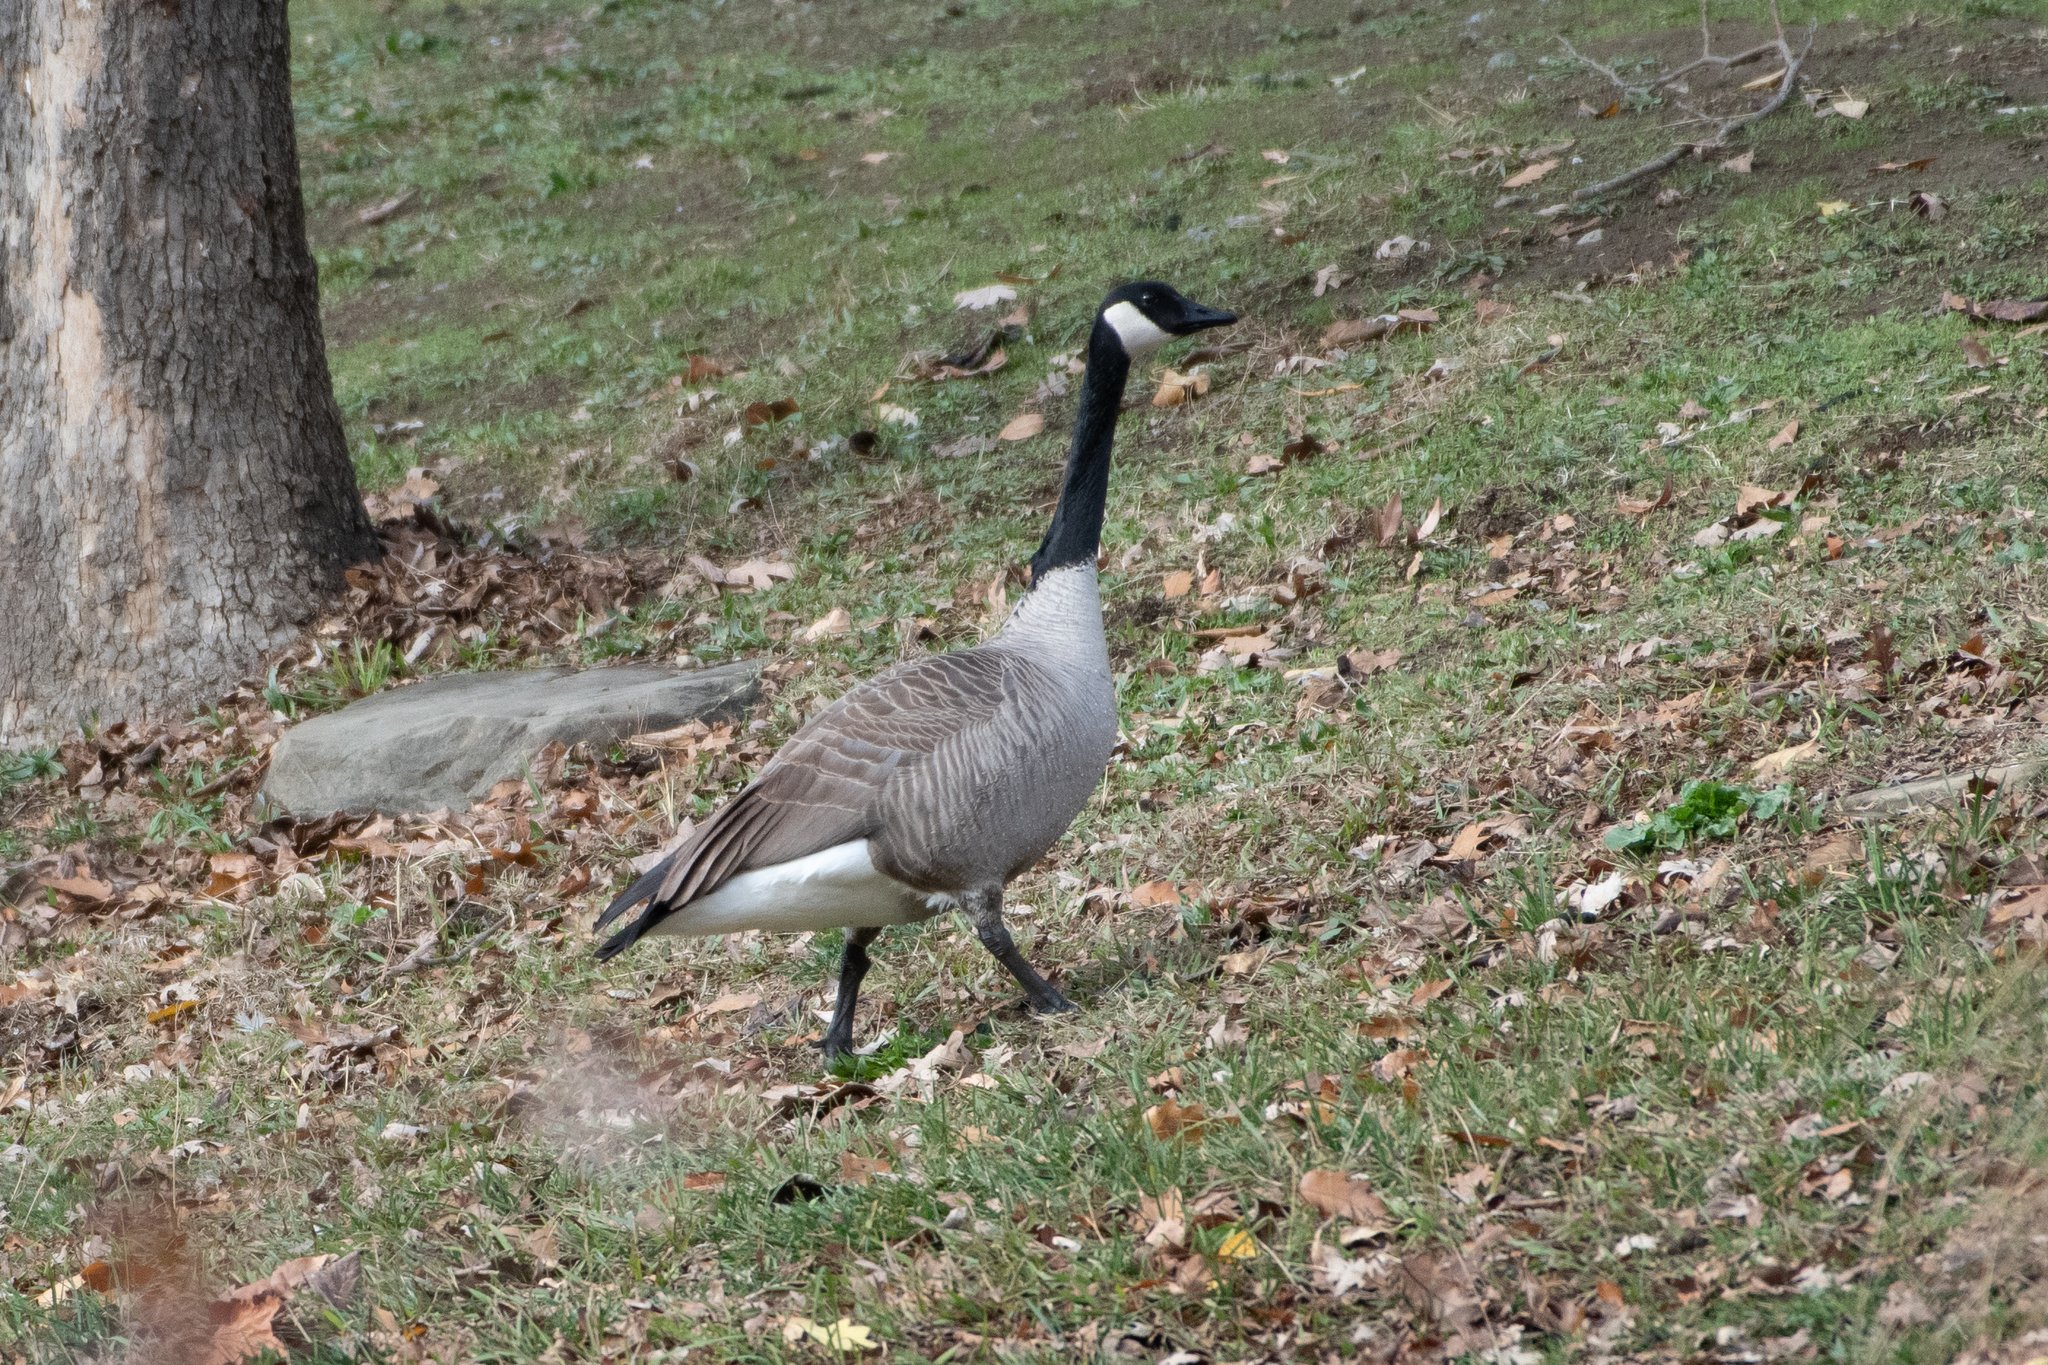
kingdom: Animalia
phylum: Chordata
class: Aves
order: Anseriformes
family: Anatidae
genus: Branta
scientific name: Branta canadensis
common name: Canada goose
